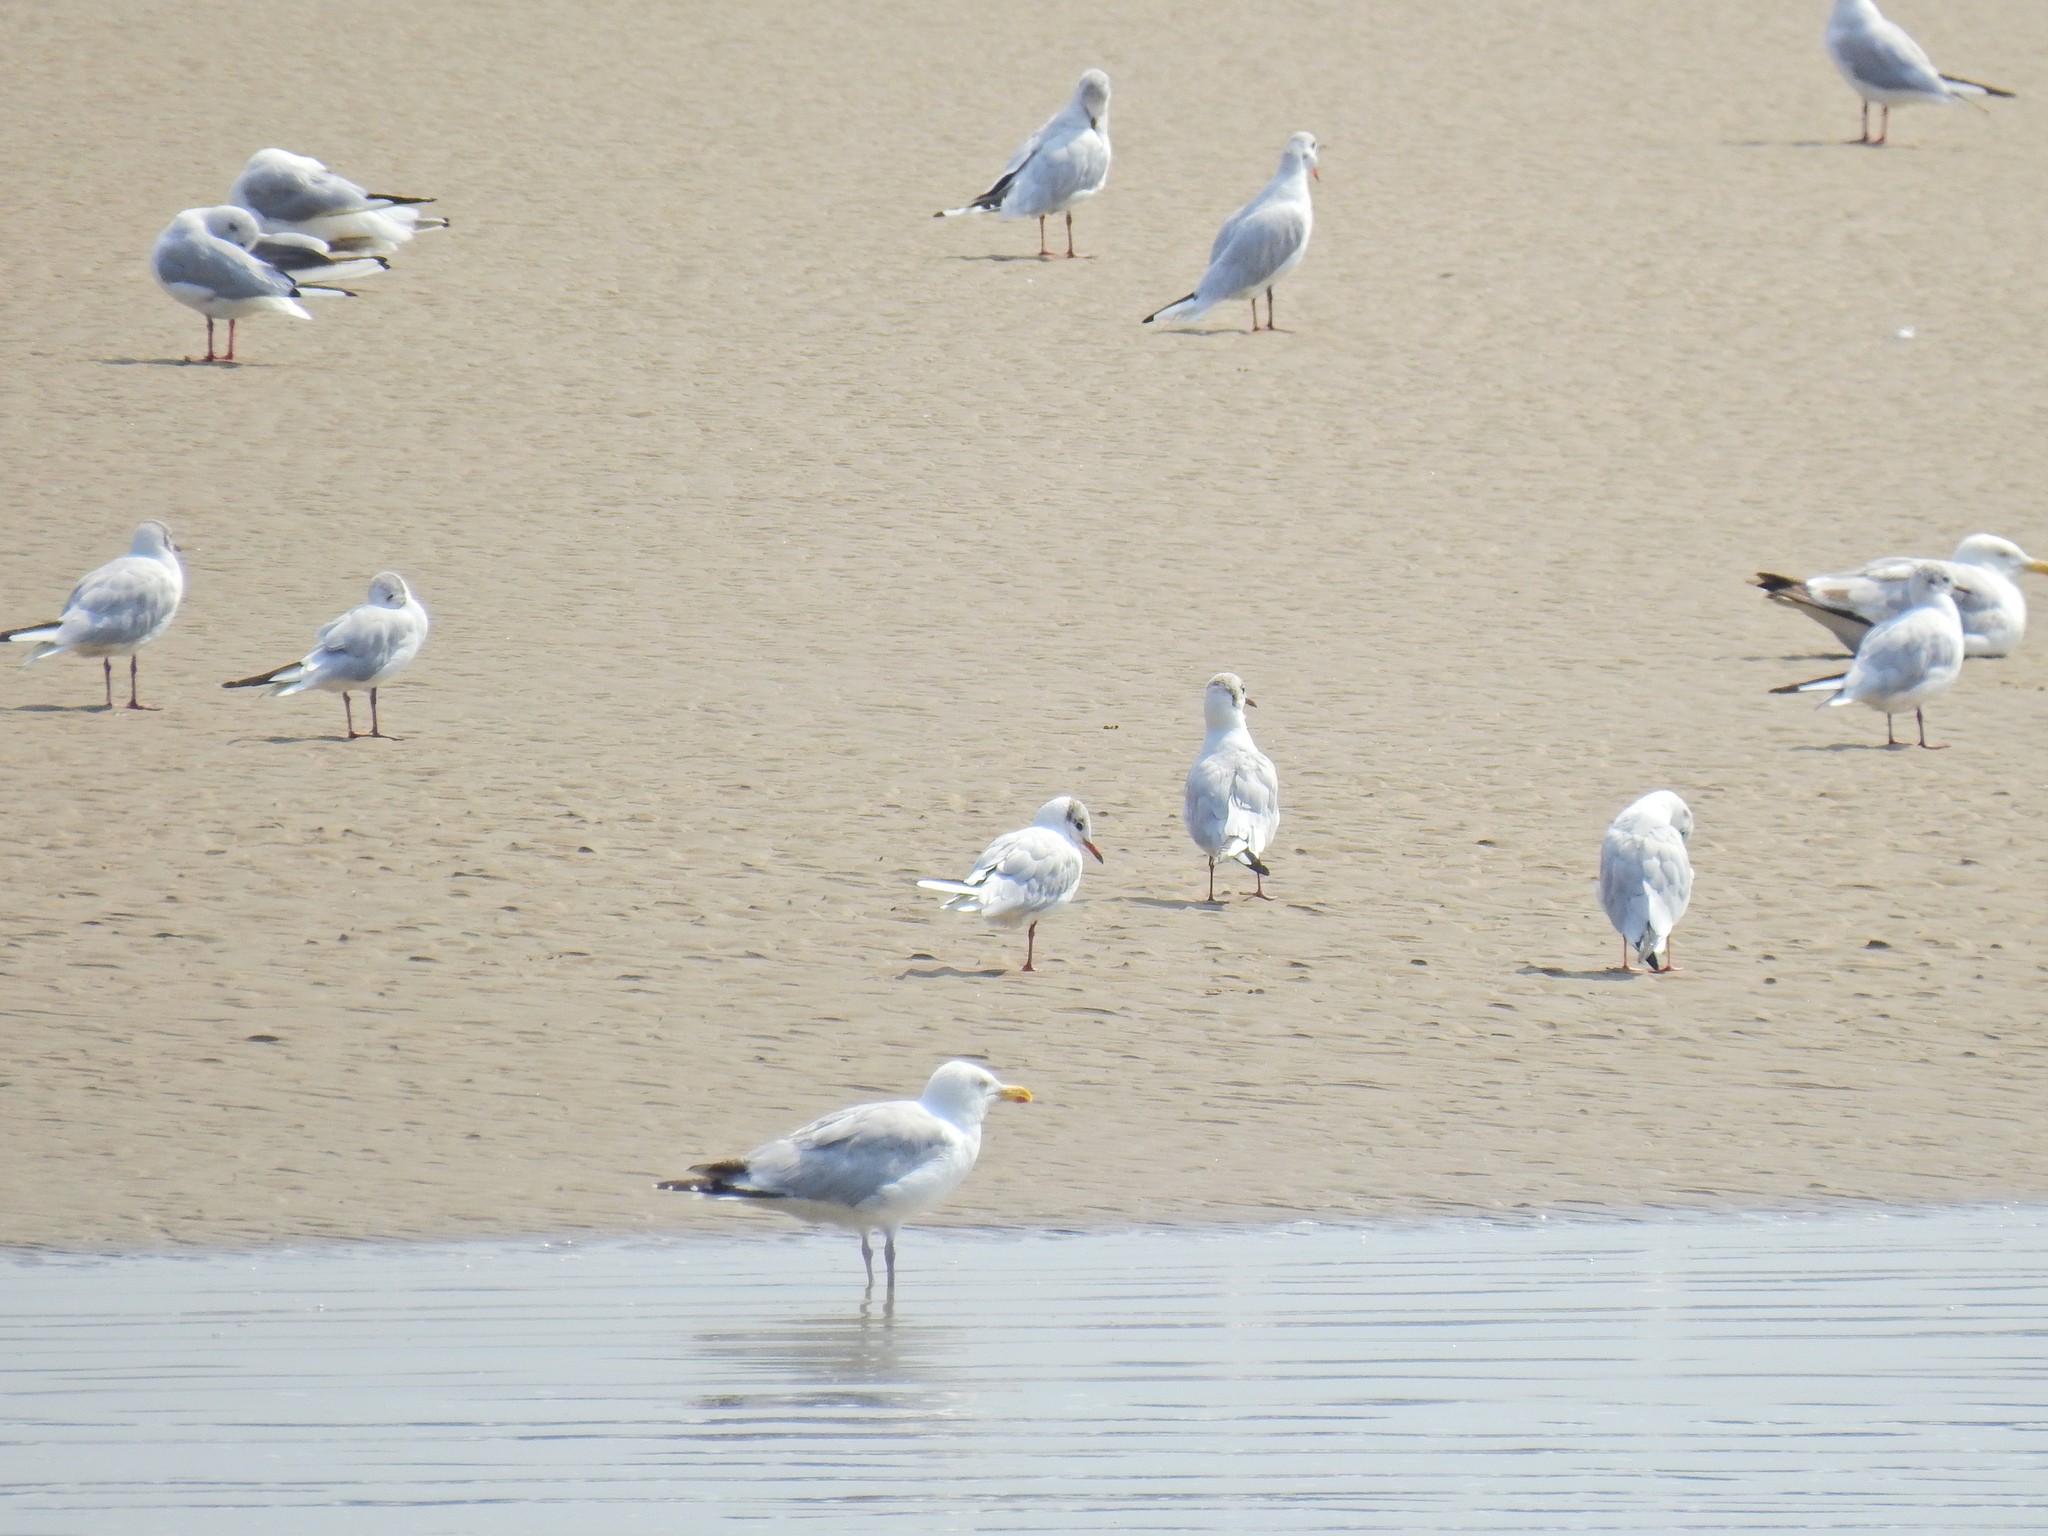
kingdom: Animalia
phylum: Chordata
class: Aves
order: Charadriiformes
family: Laridae
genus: Larus
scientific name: Larus argentatus
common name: Herring gull
